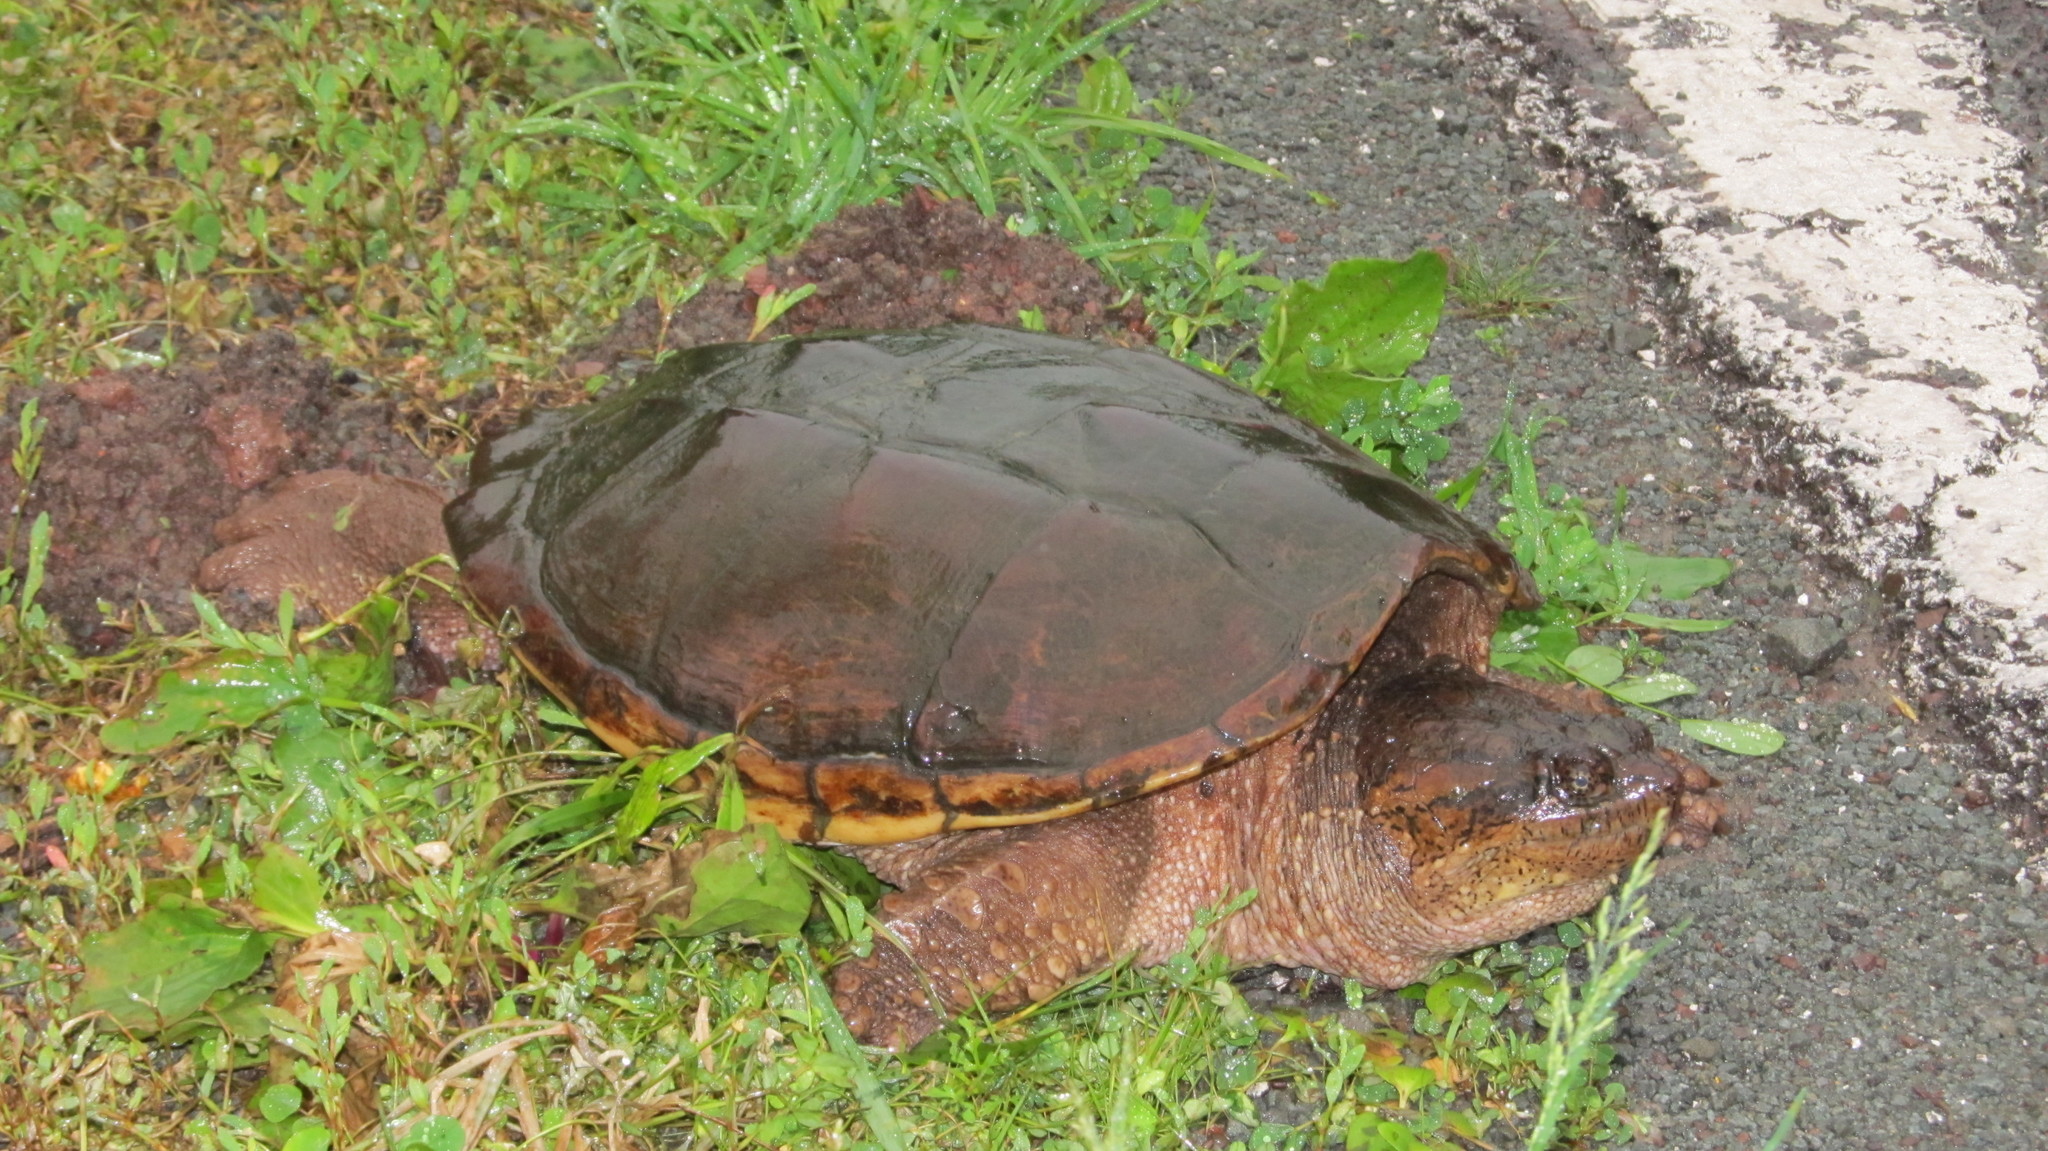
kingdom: Animalia
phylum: Chordata
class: Testudines
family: Chelydridae
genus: Chelydra
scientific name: Chelydra serpentina
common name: Common snapping turtle
